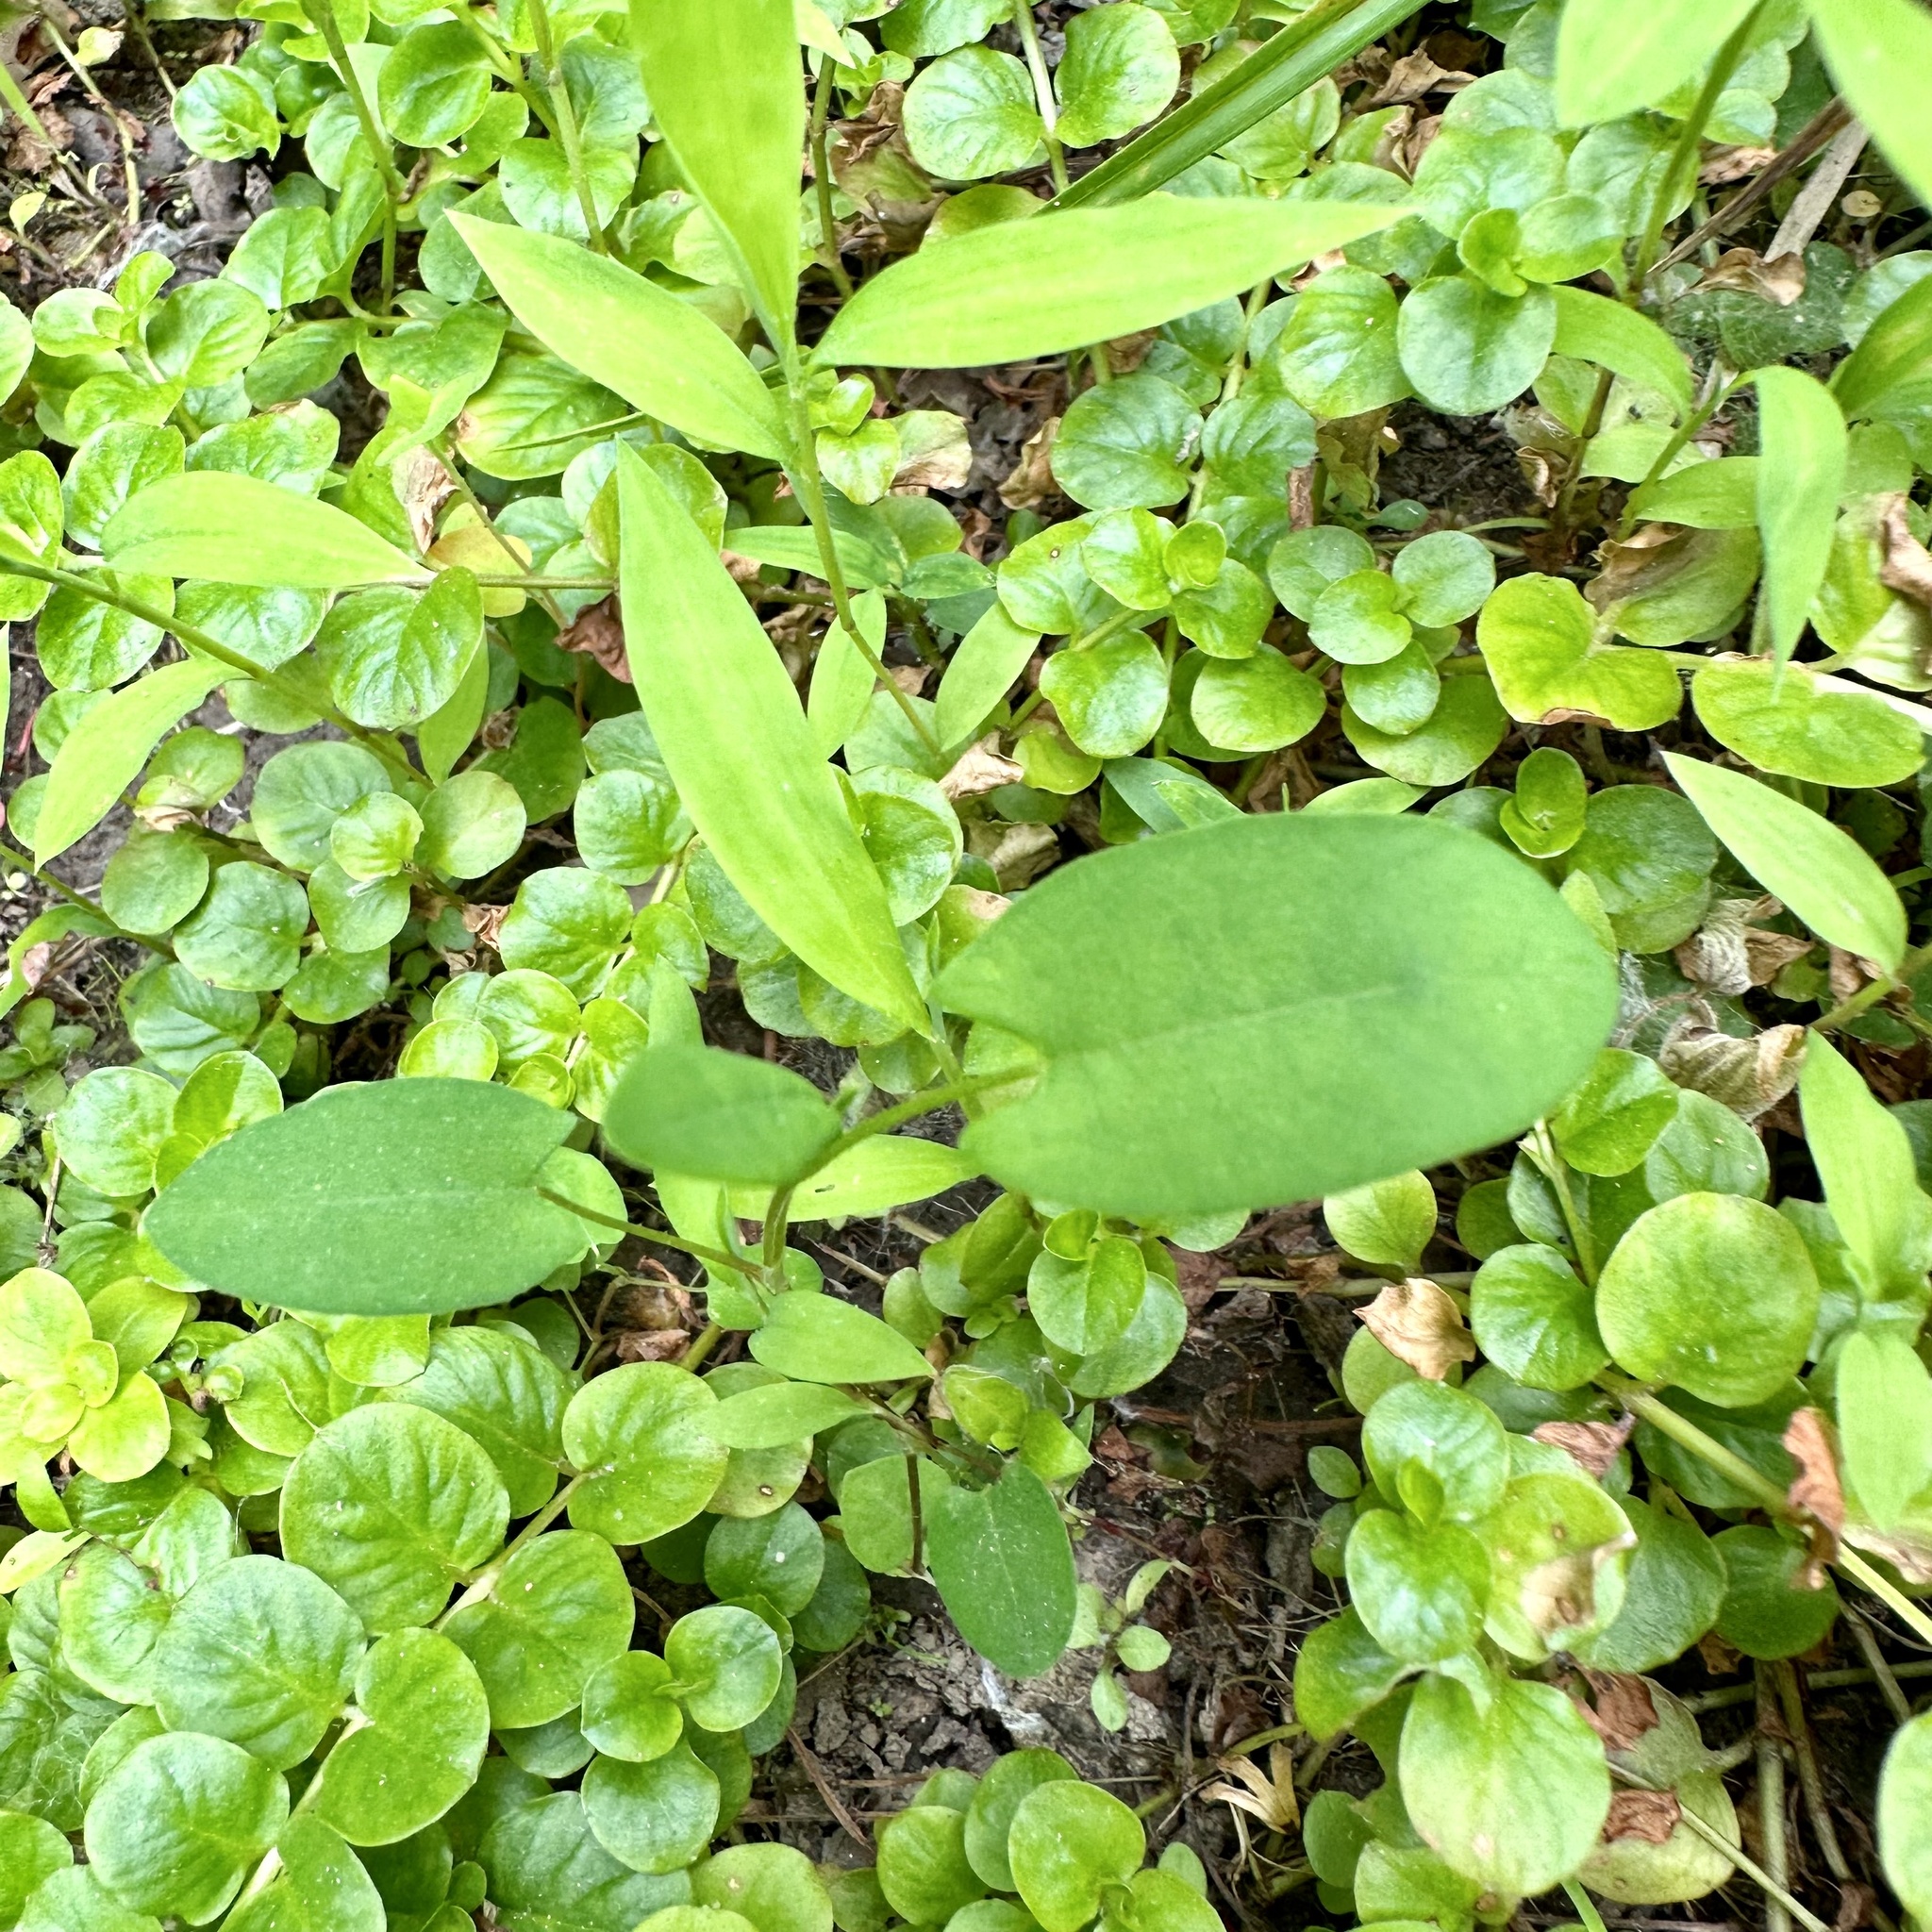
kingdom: Plantae
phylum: Tracheophyta
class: Magnoliopsida
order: Caryophyllales
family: Polygonaceae
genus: Persicaria
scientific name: Persicaria sagittata
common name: American tearthumb
